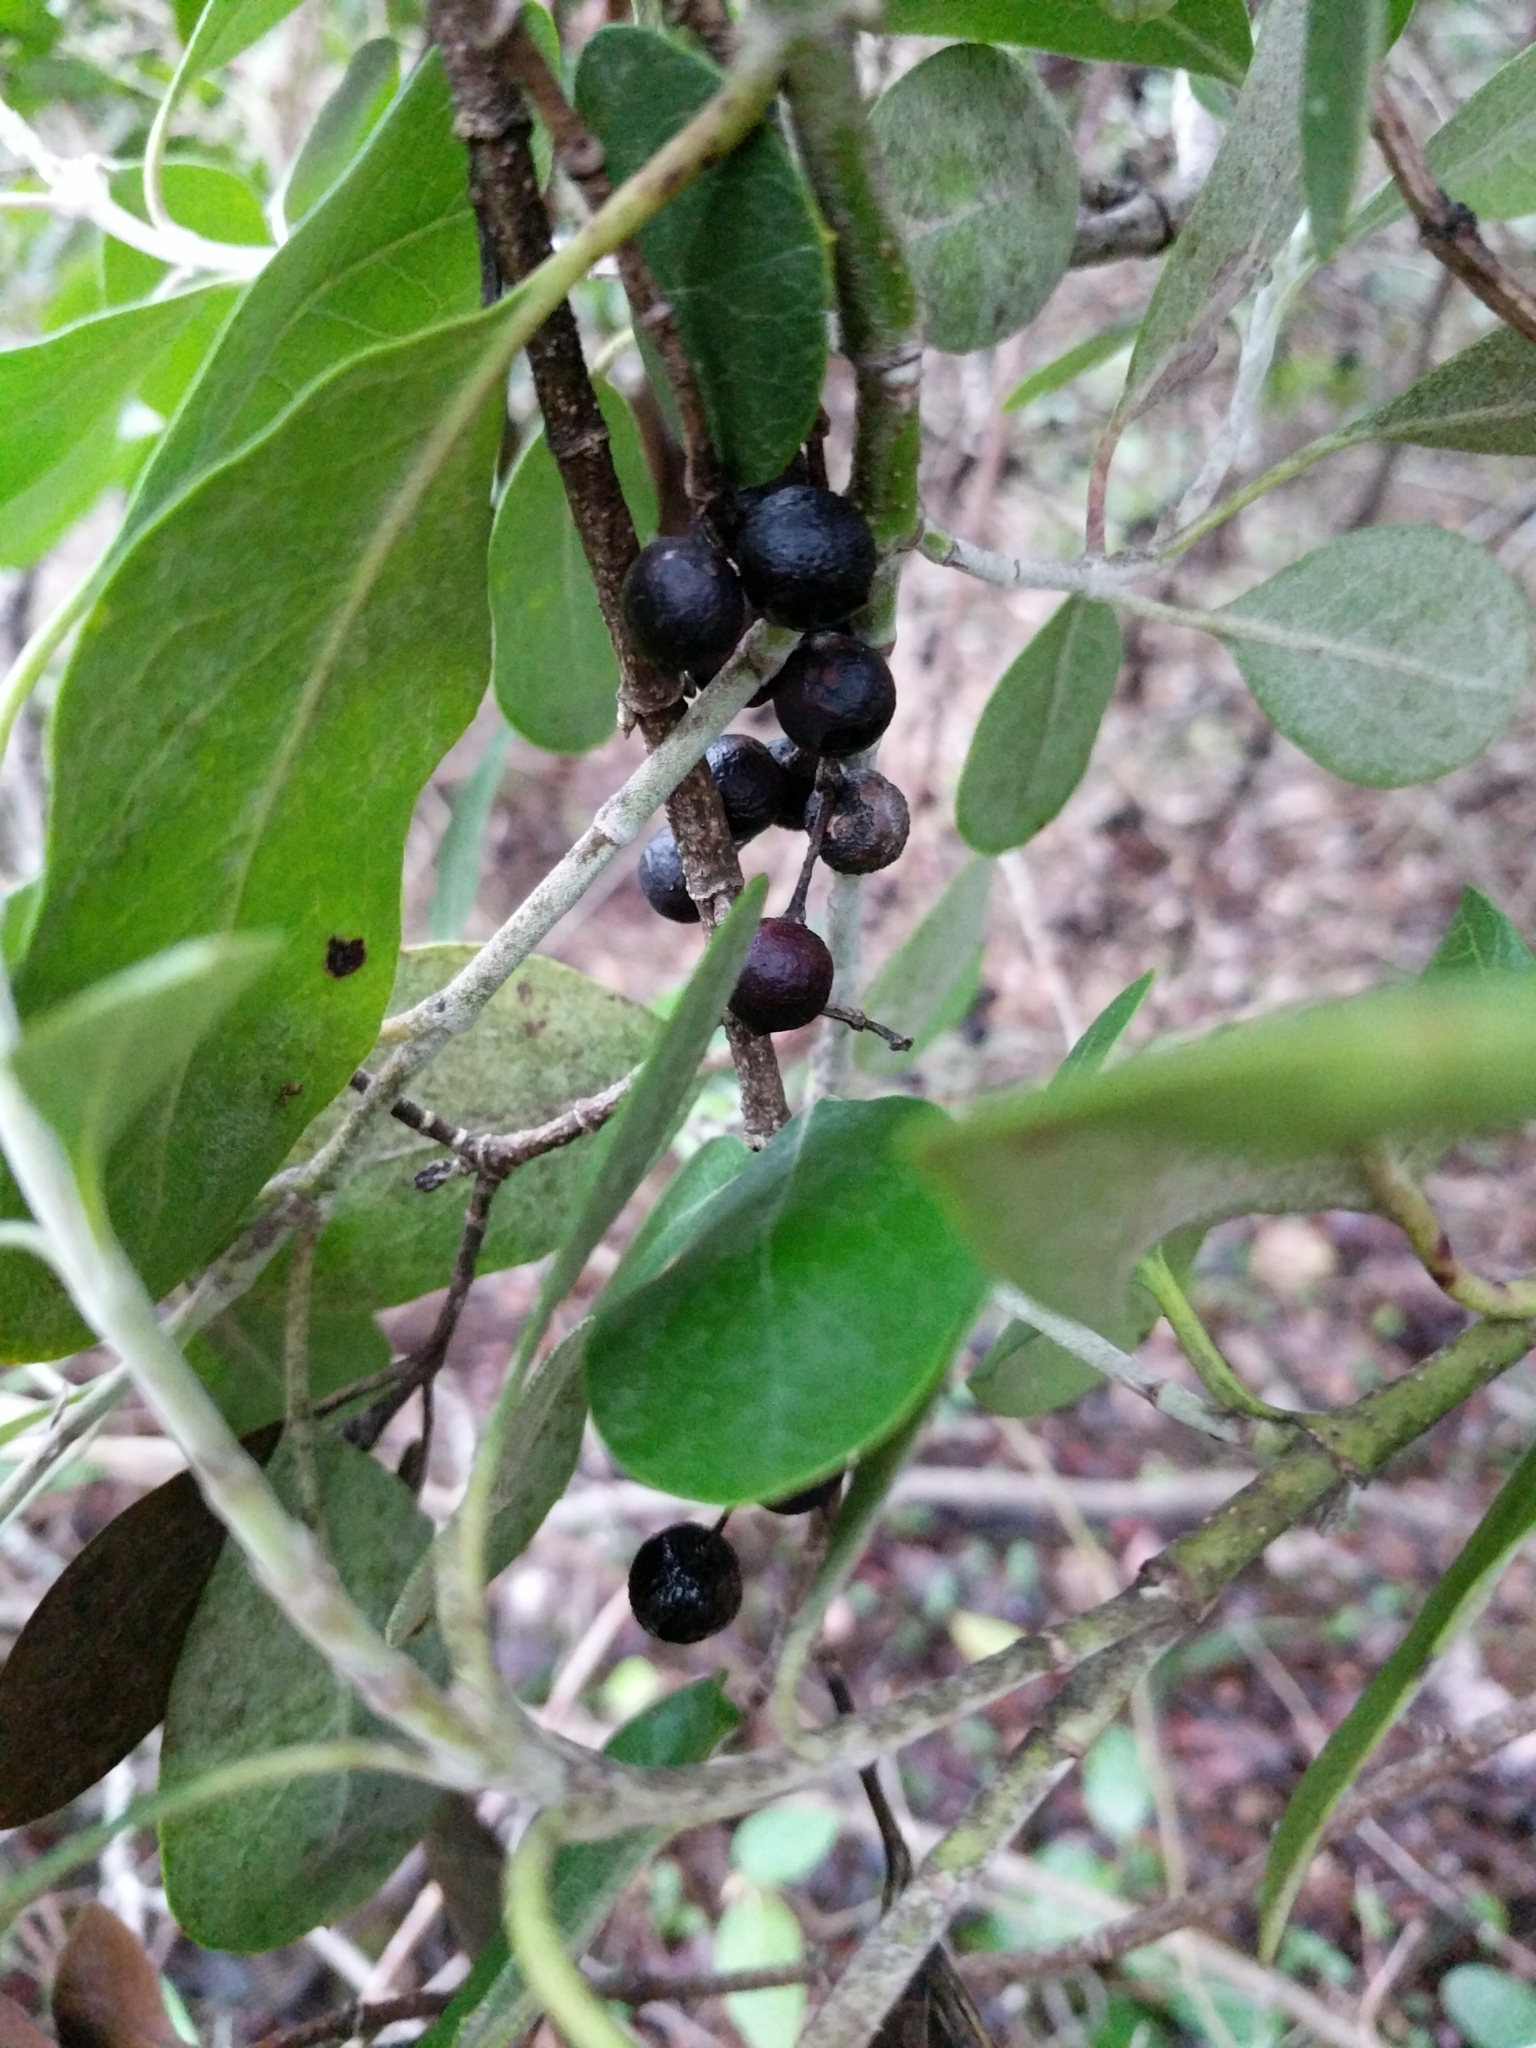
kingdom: Plantae
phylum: Tracheophyta
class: Magnoliopsida
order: Garryales
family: Garryaceae
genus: Garrya
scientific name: Garrya lindheimeri
